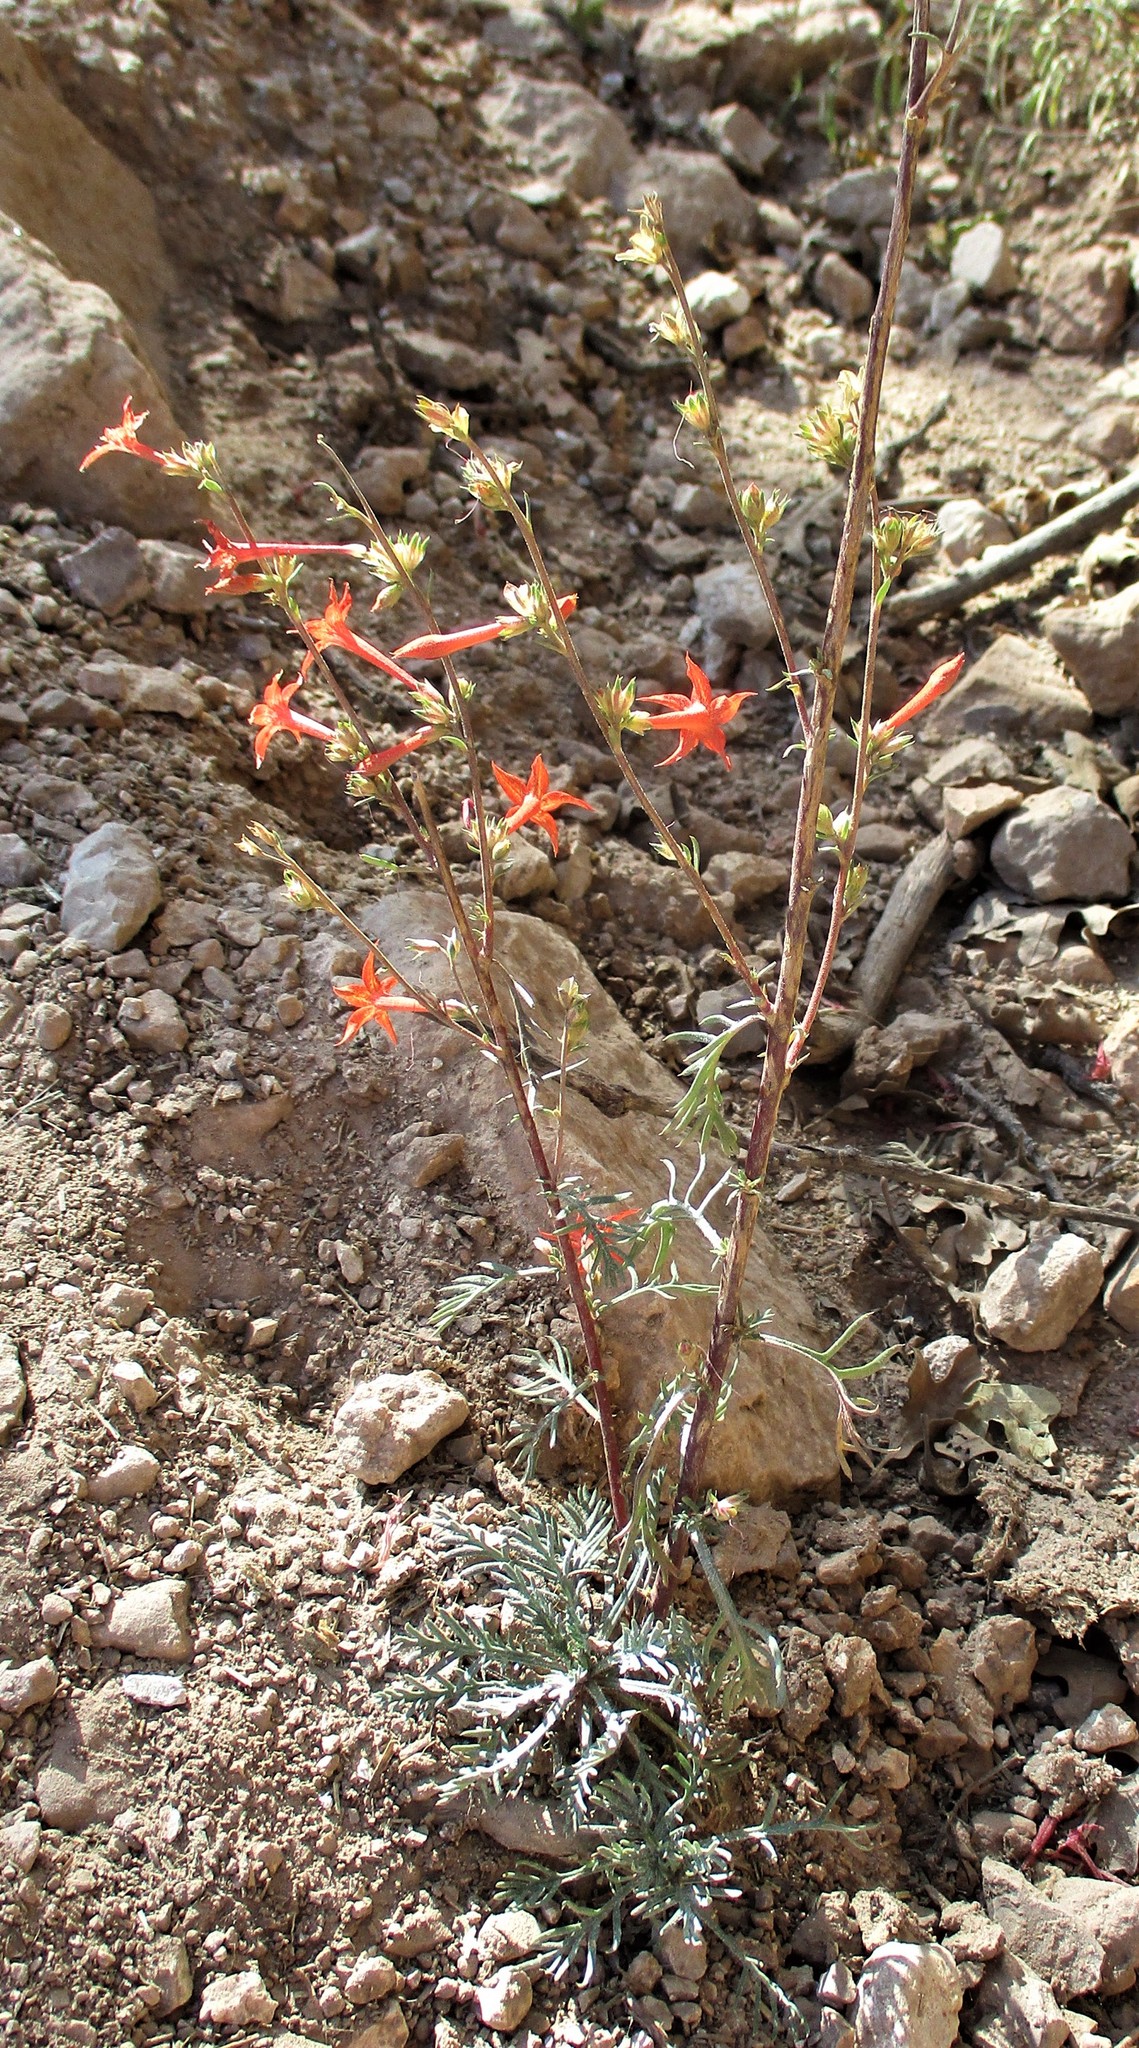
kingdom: Plantae
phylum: Tracheophyta
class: Magnoliopsida
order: Ericales
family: Polemoniaceae
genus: Ipomopsis
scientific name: Ipomopsis aggregata
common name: Scarlet gilia
